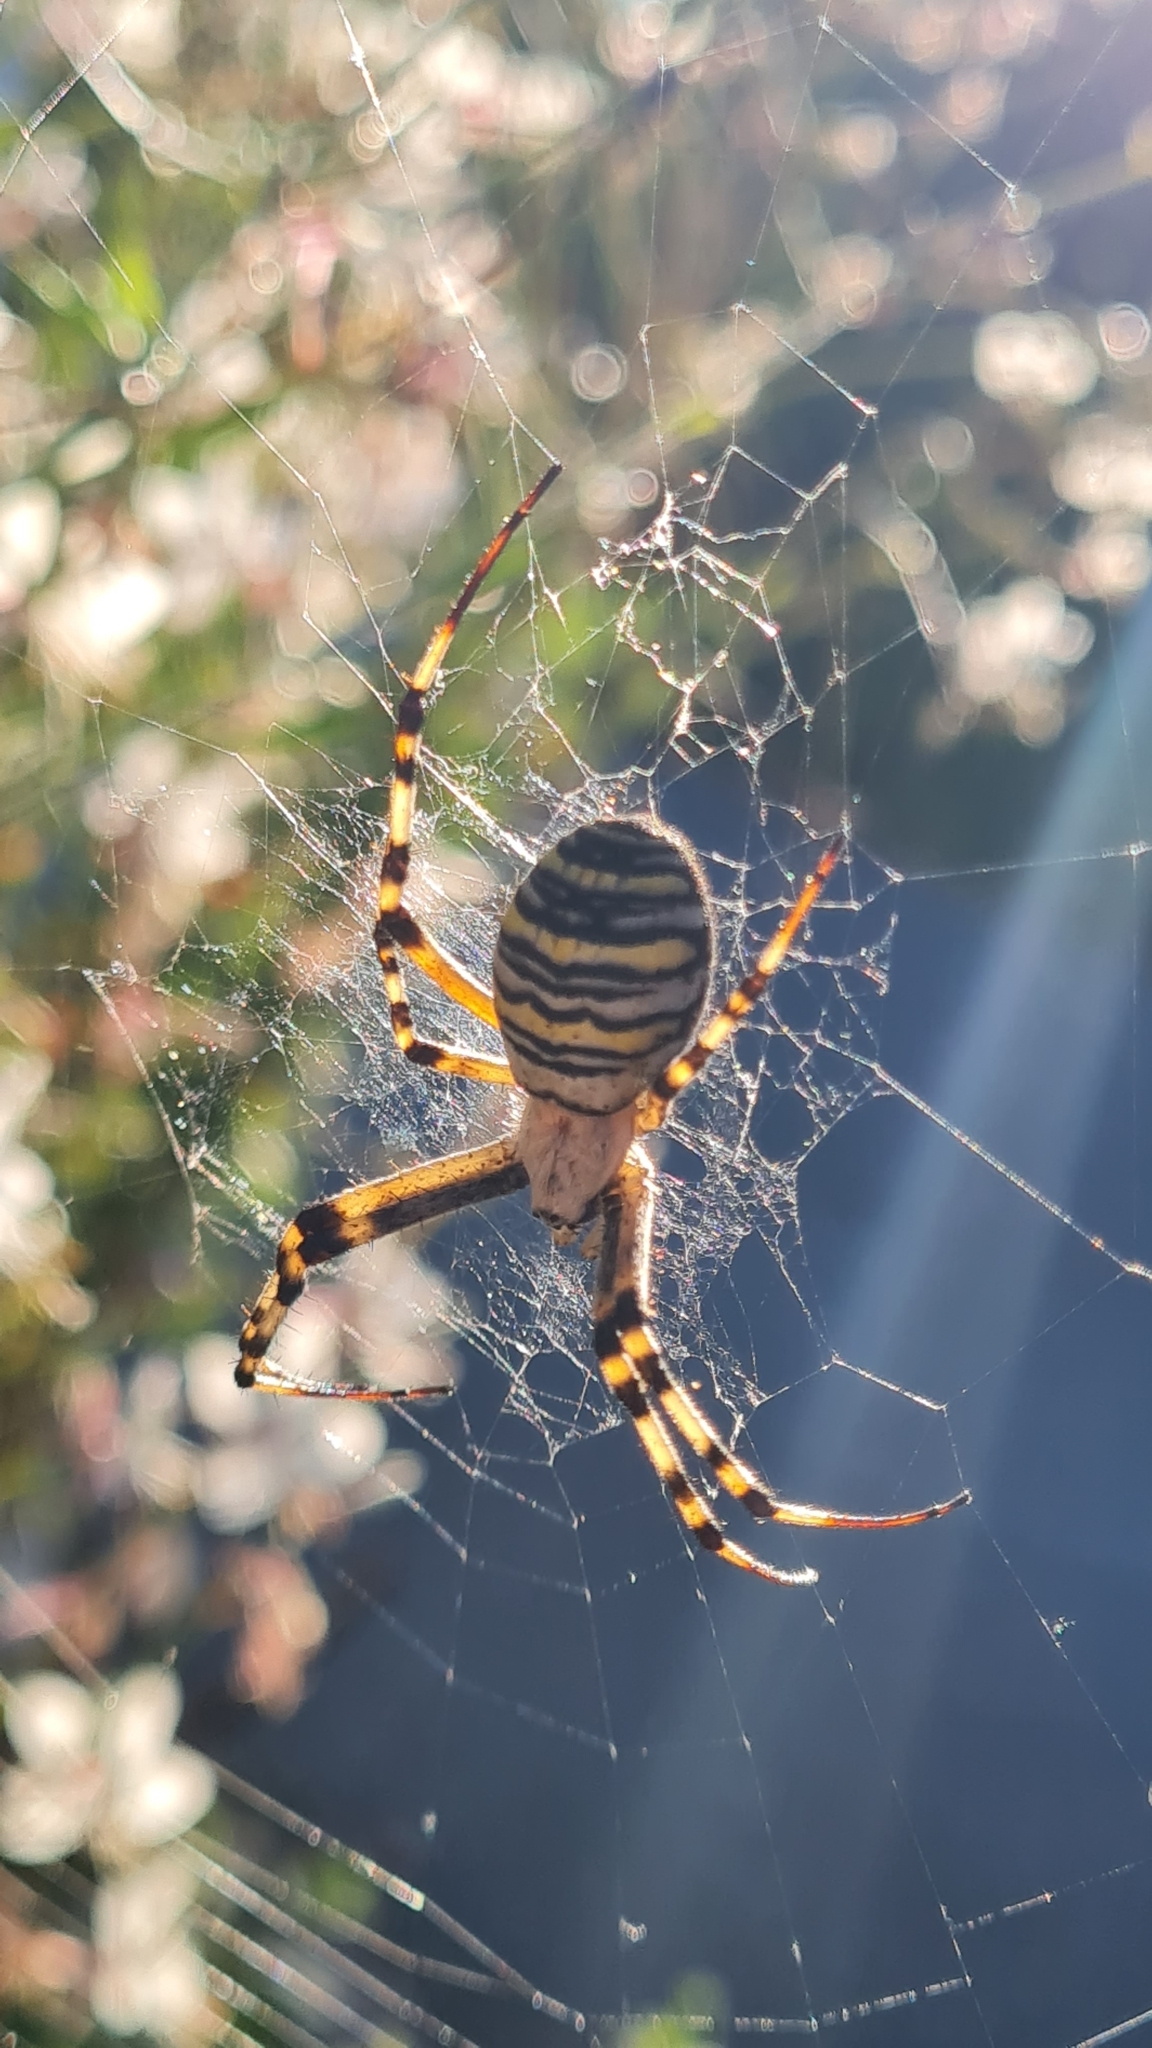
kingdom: Animalia
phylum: Arthropoda
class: Arachnida
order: Araneae
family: Araneidae
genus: Argiope
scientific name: Argiope bruennichi
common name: Wasp spider
